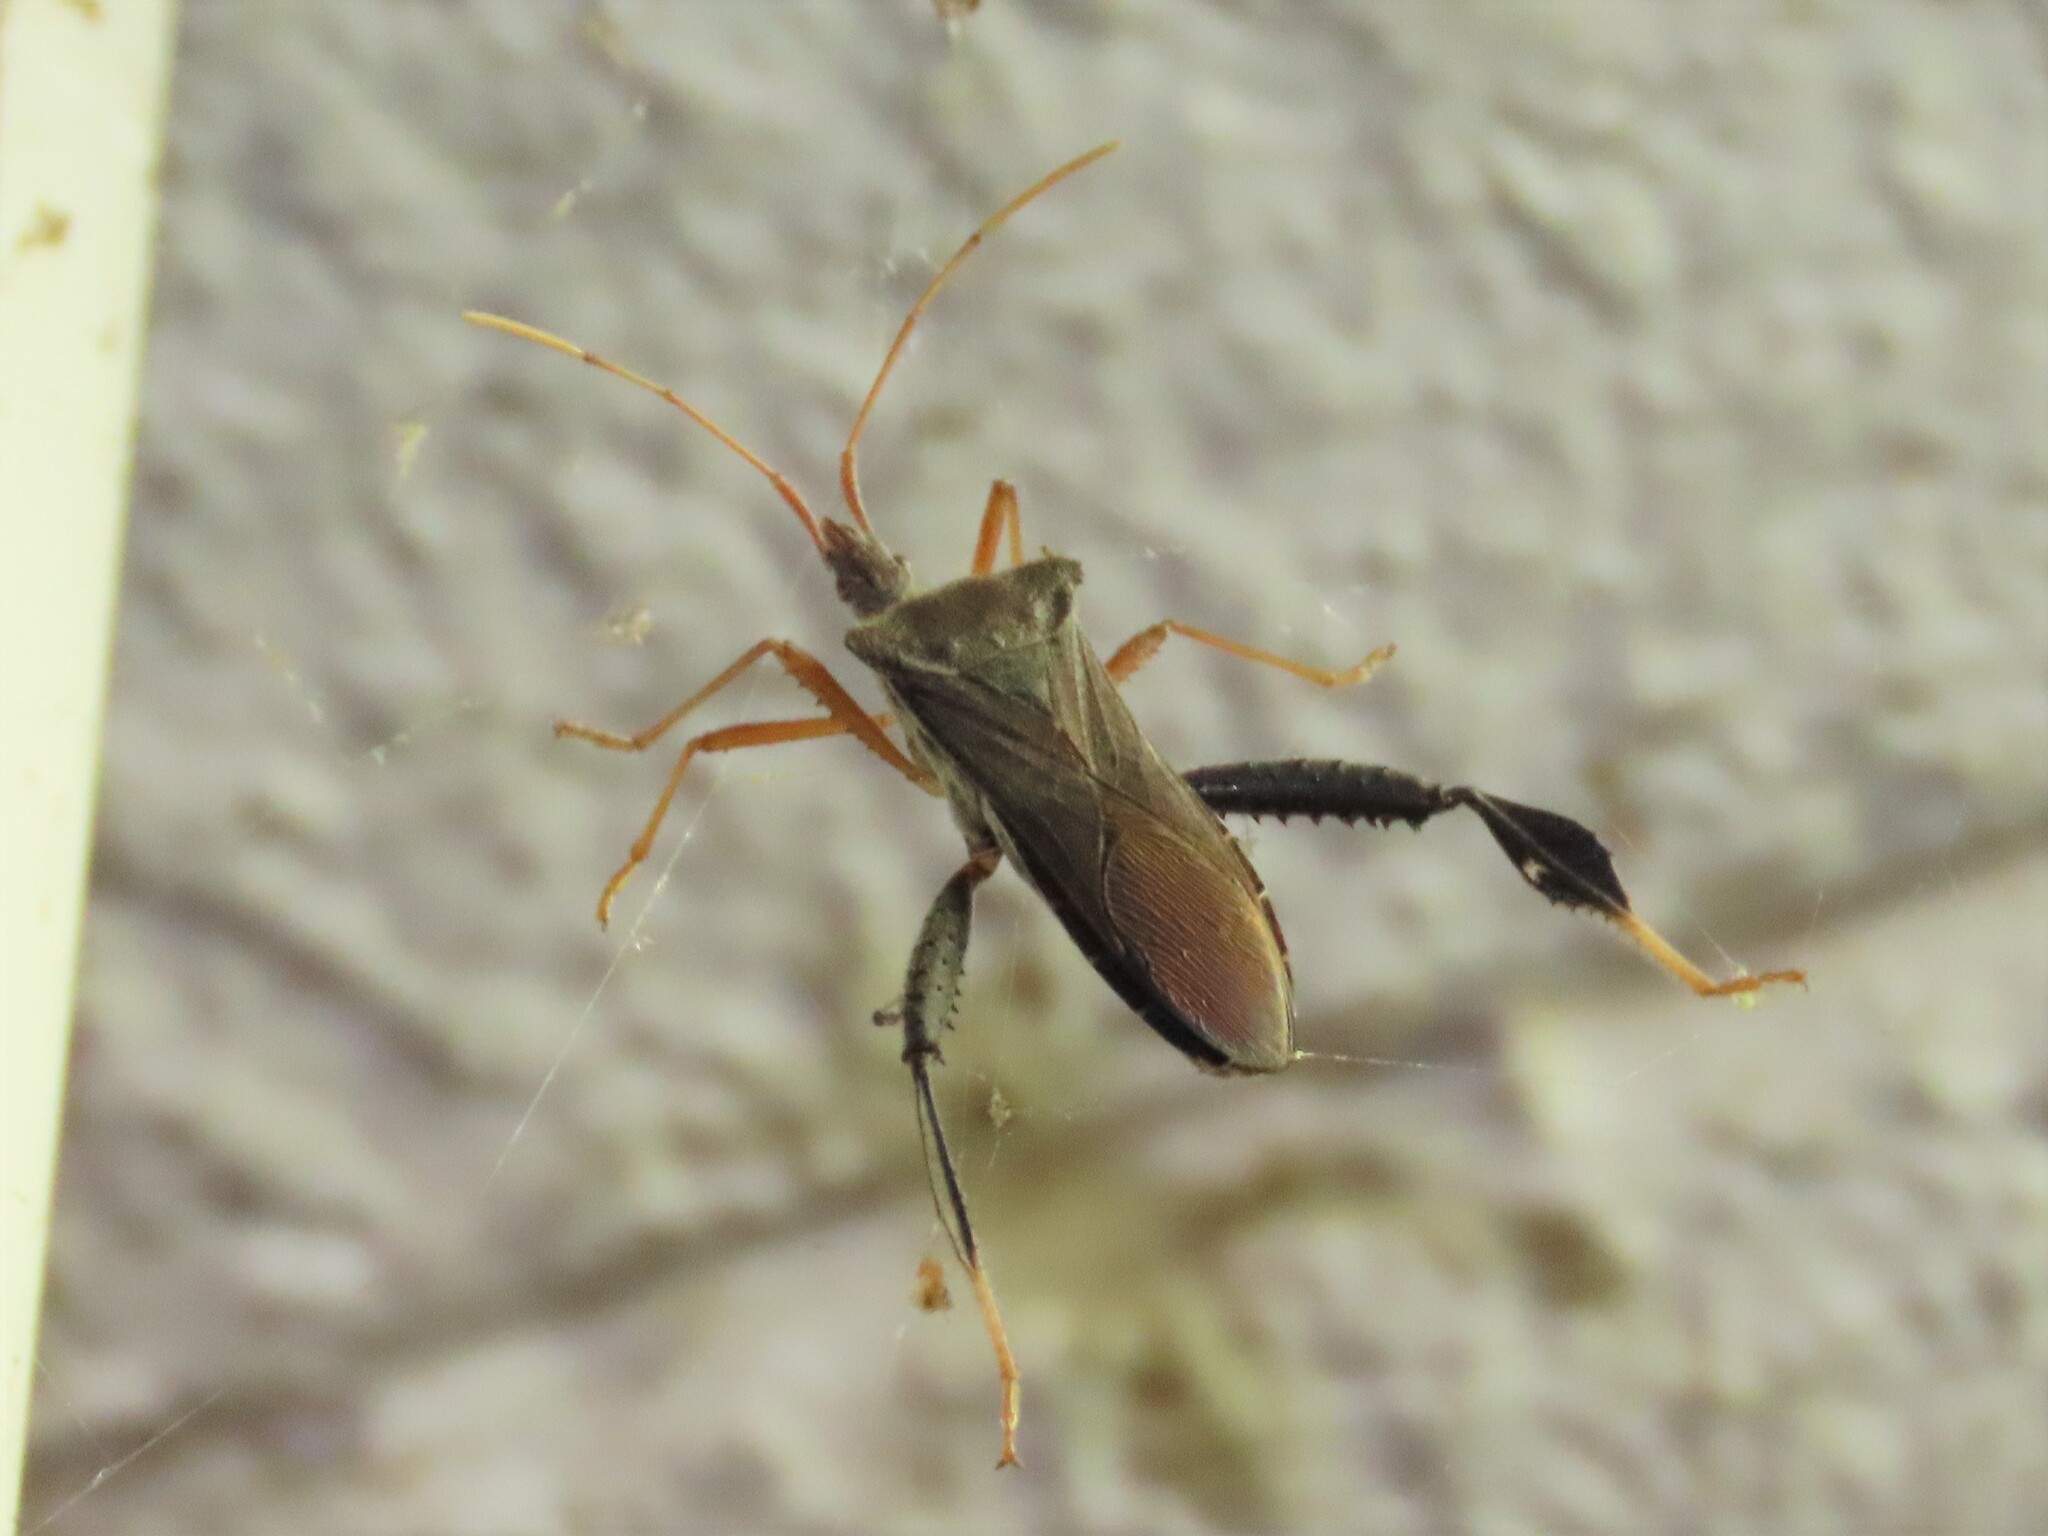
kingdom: Animalia
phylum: Arthropoda
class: Insecta
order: Hemiptera
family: Coreidae
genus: Leptoglossus
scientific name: Leptoglossus fulvicornis
